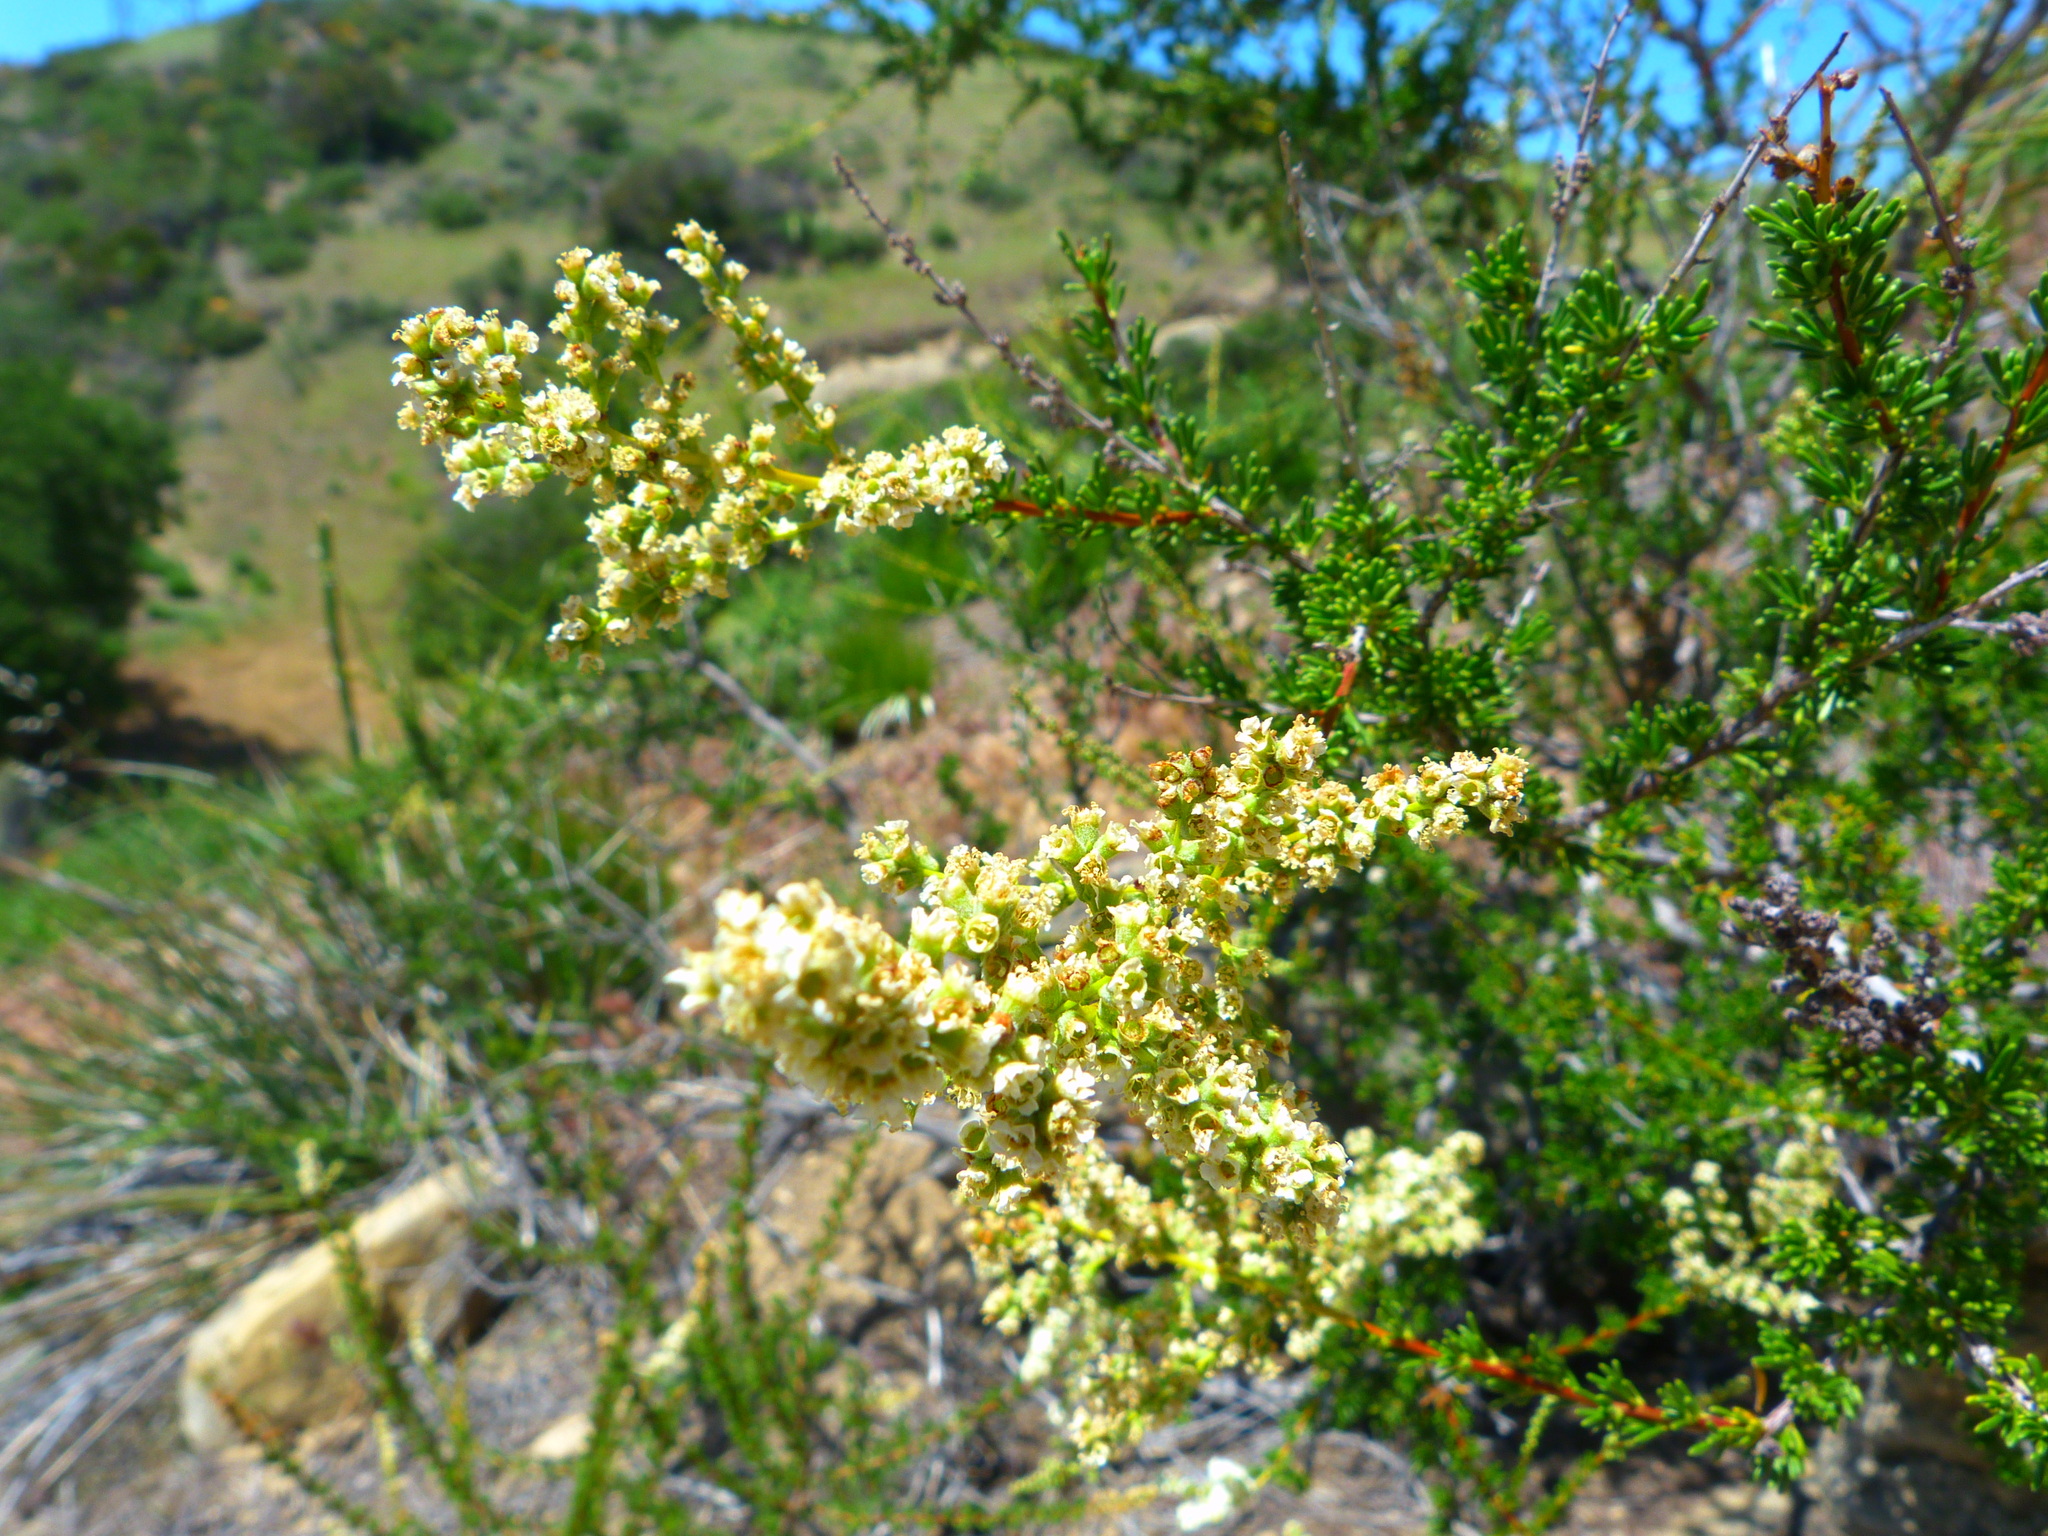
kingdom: Plantae
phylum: Tracheophyta
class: Magnoliopsida
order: Rosales
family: Rosaceae
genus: Adenostoma
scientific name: Adenostoma fasciculatum
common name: Chamise
